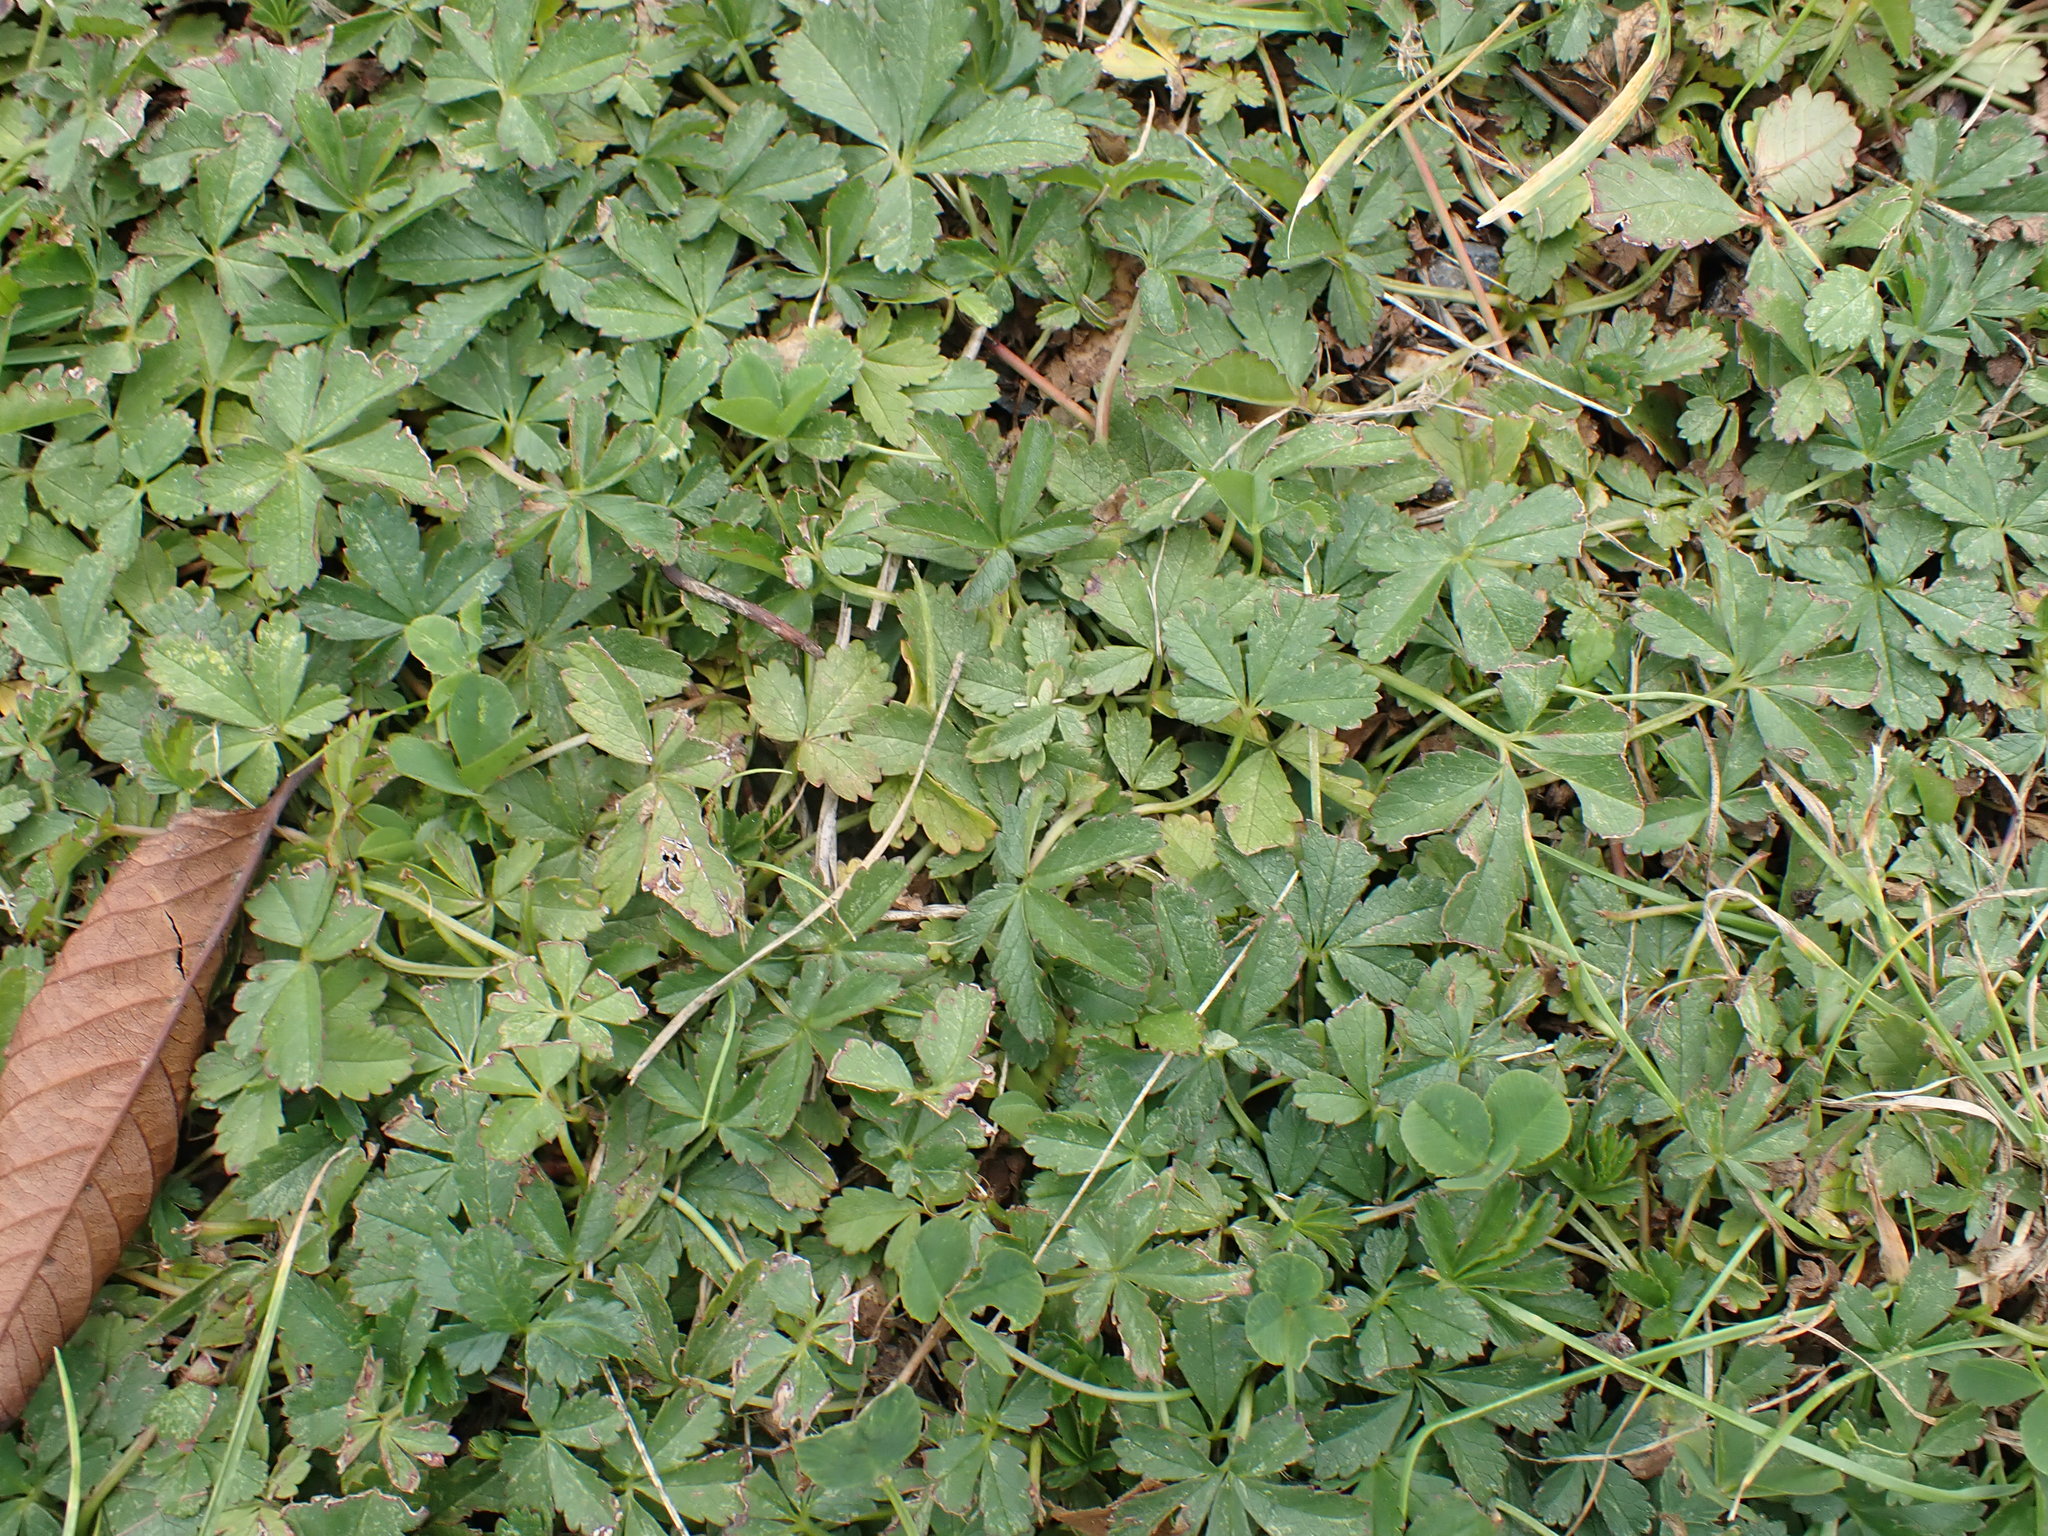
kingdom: Plantae
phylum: Tracheophyta
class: Magnoliopsida
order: Rosales
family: Rosaceae
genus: Potentilla
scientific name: Potentilla reptans
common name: Creeping cinquefoil
